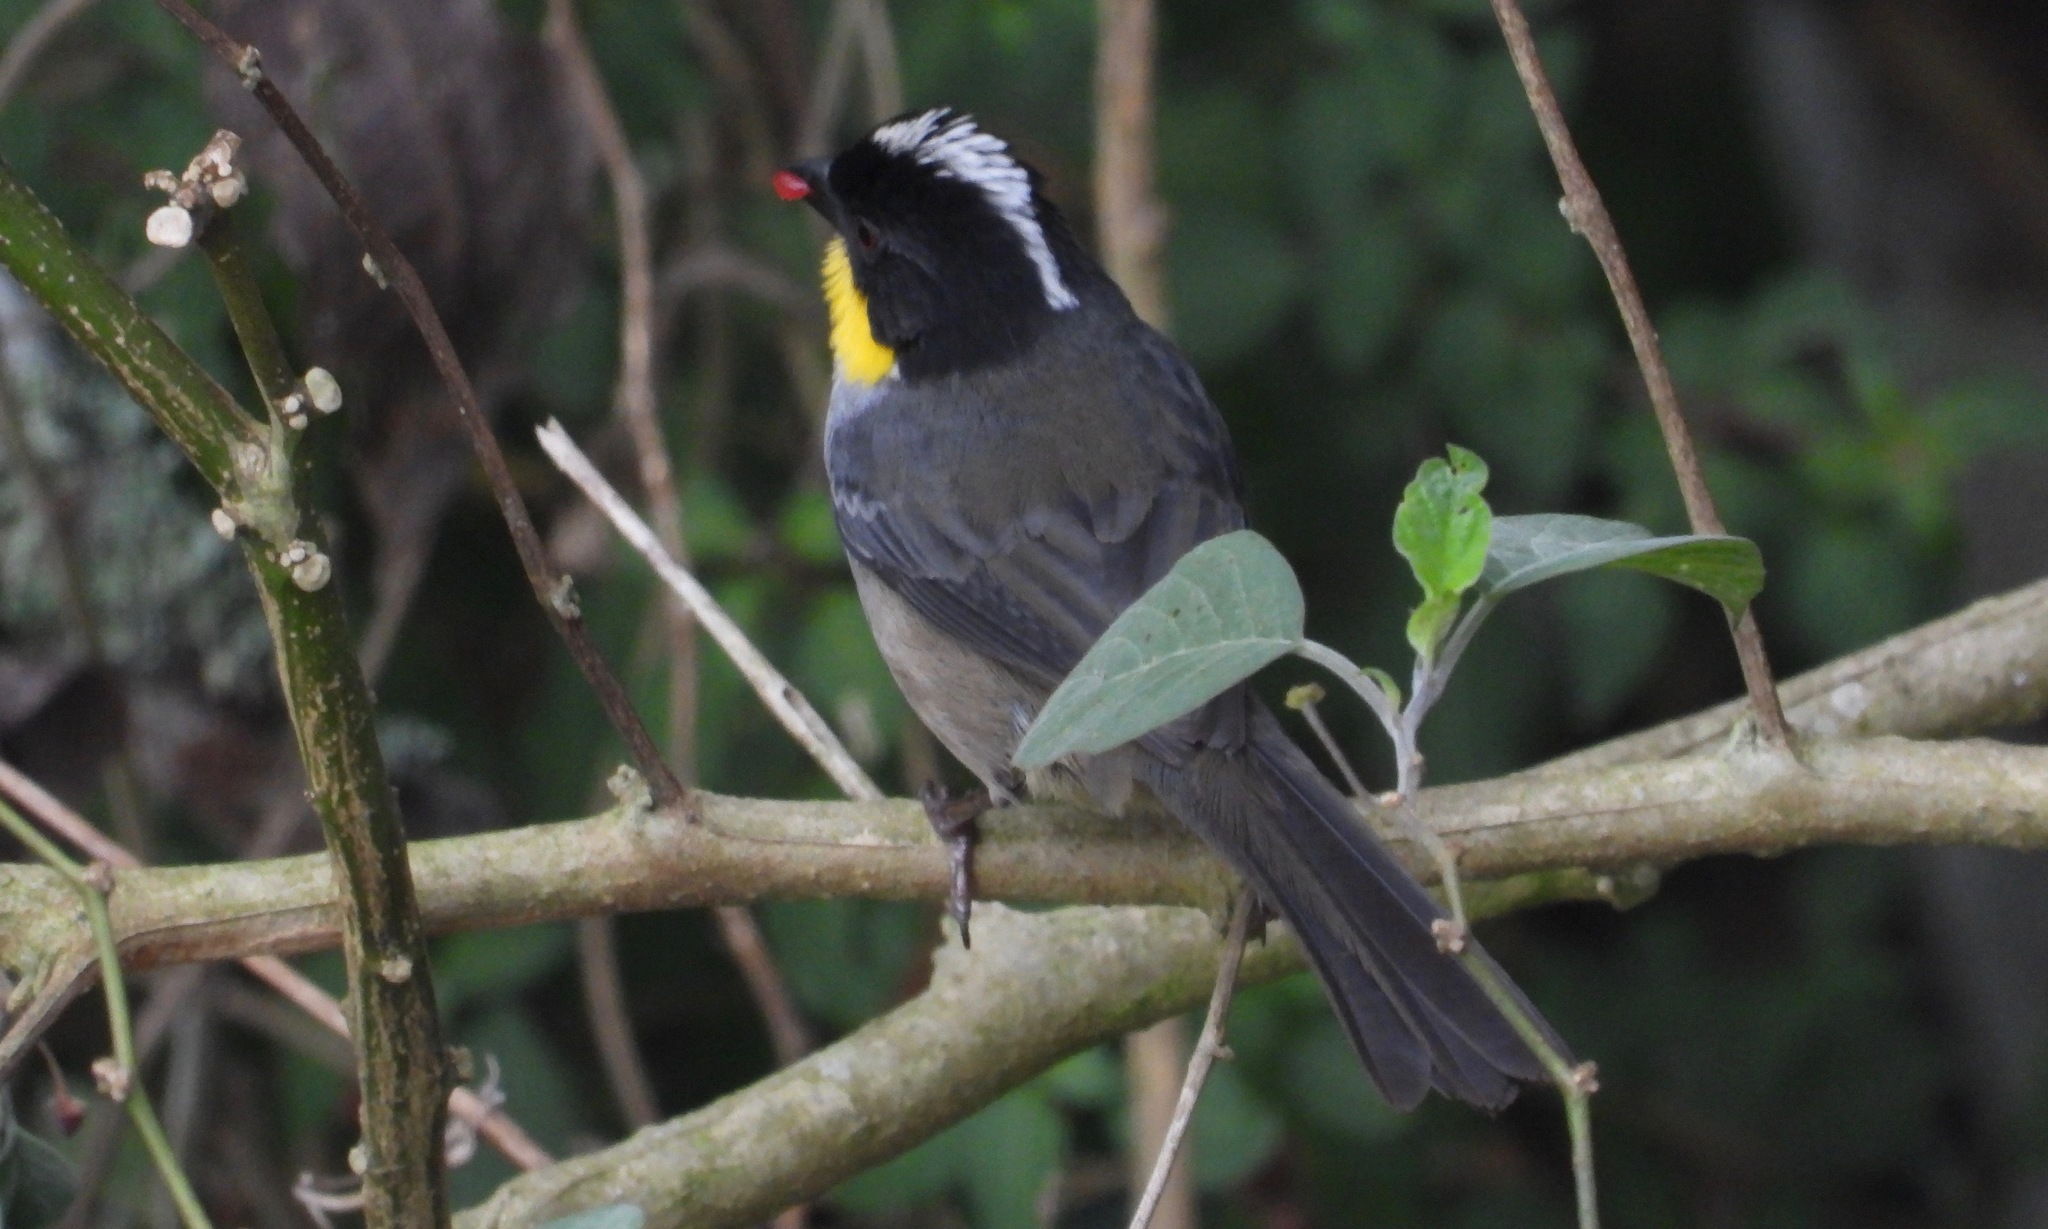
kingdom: Animalia
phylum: Chordata
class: Aves
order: Passeriformes
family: Passerellidae
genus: Atlapetes
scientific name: Atlapetes albinucha
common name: White-naped brush-finch
